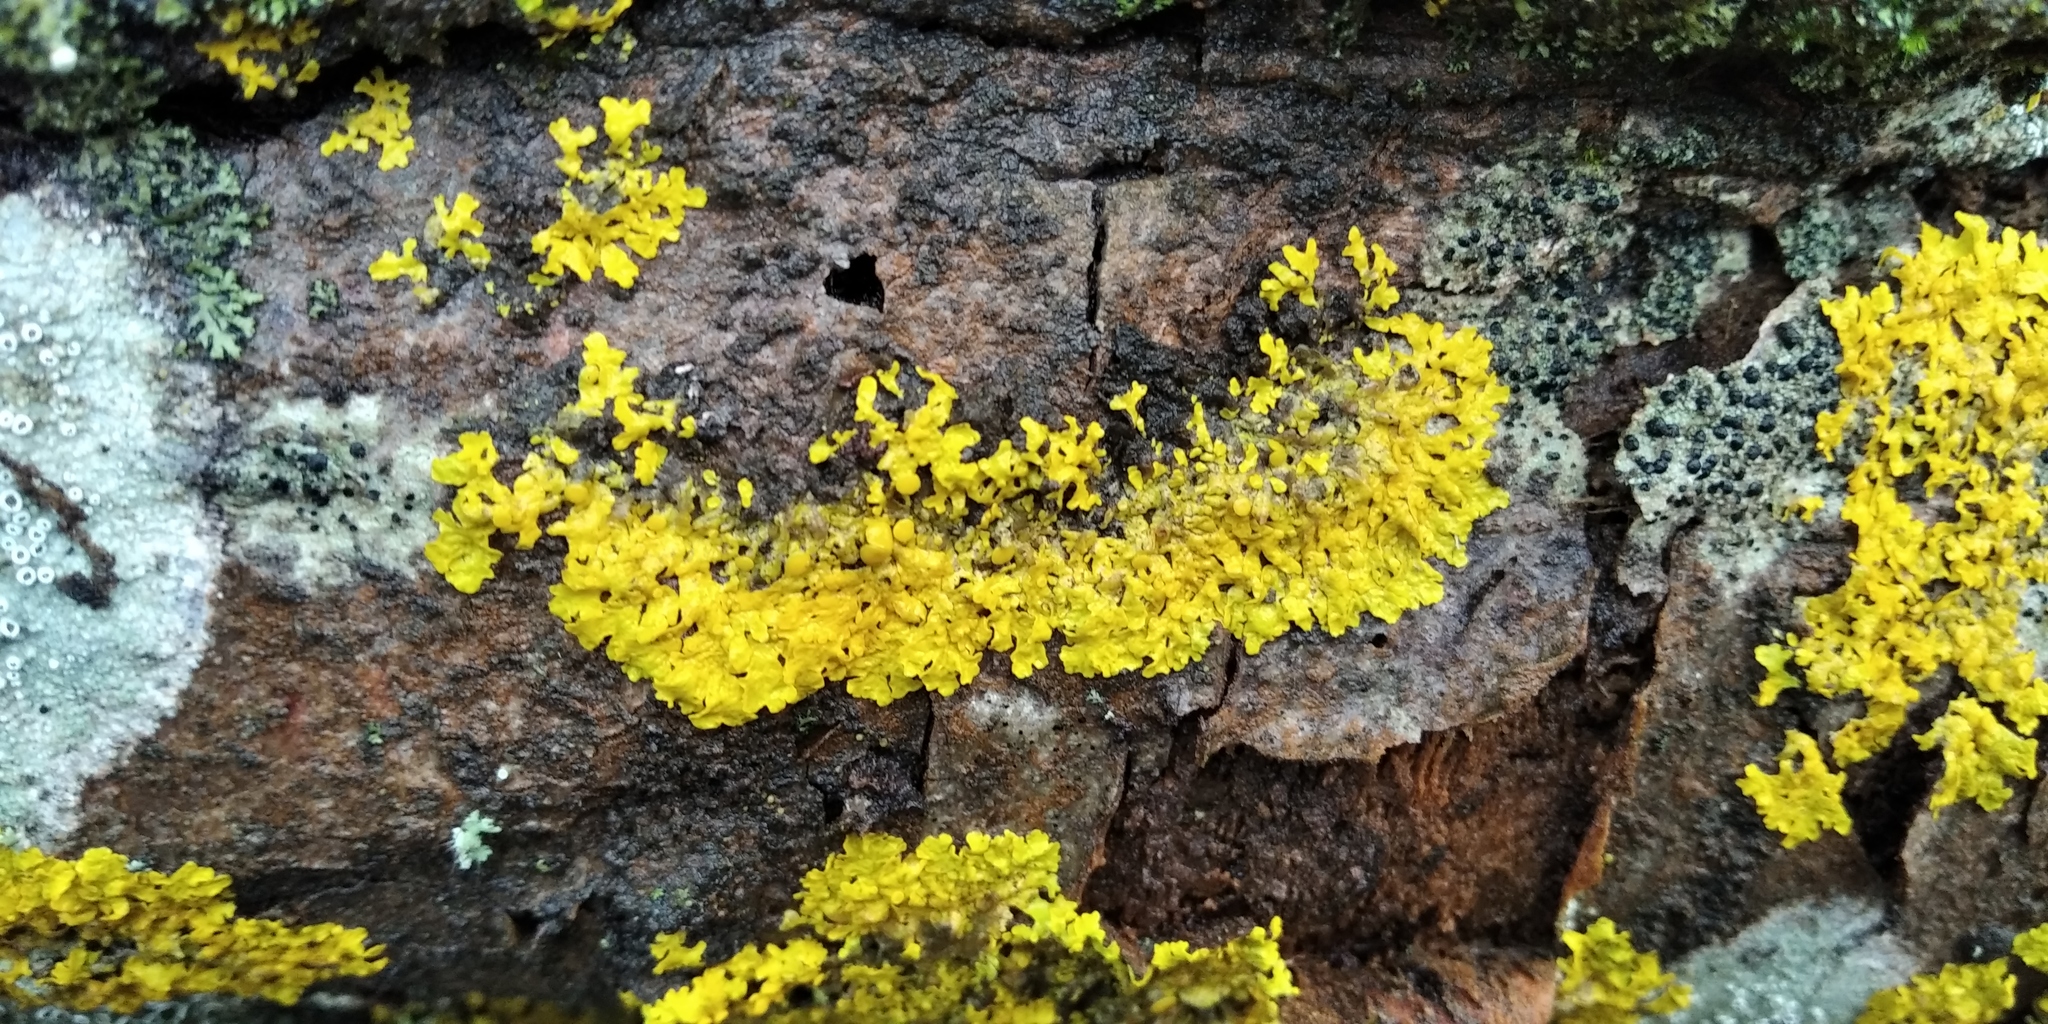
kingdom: Fungi
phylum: Ascomycota
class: Lecanoromycetes
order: Teloschistales
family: Teloschistaceae
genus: Xanthoria
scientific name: Xanthoria parietina
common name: Common orange lichen
